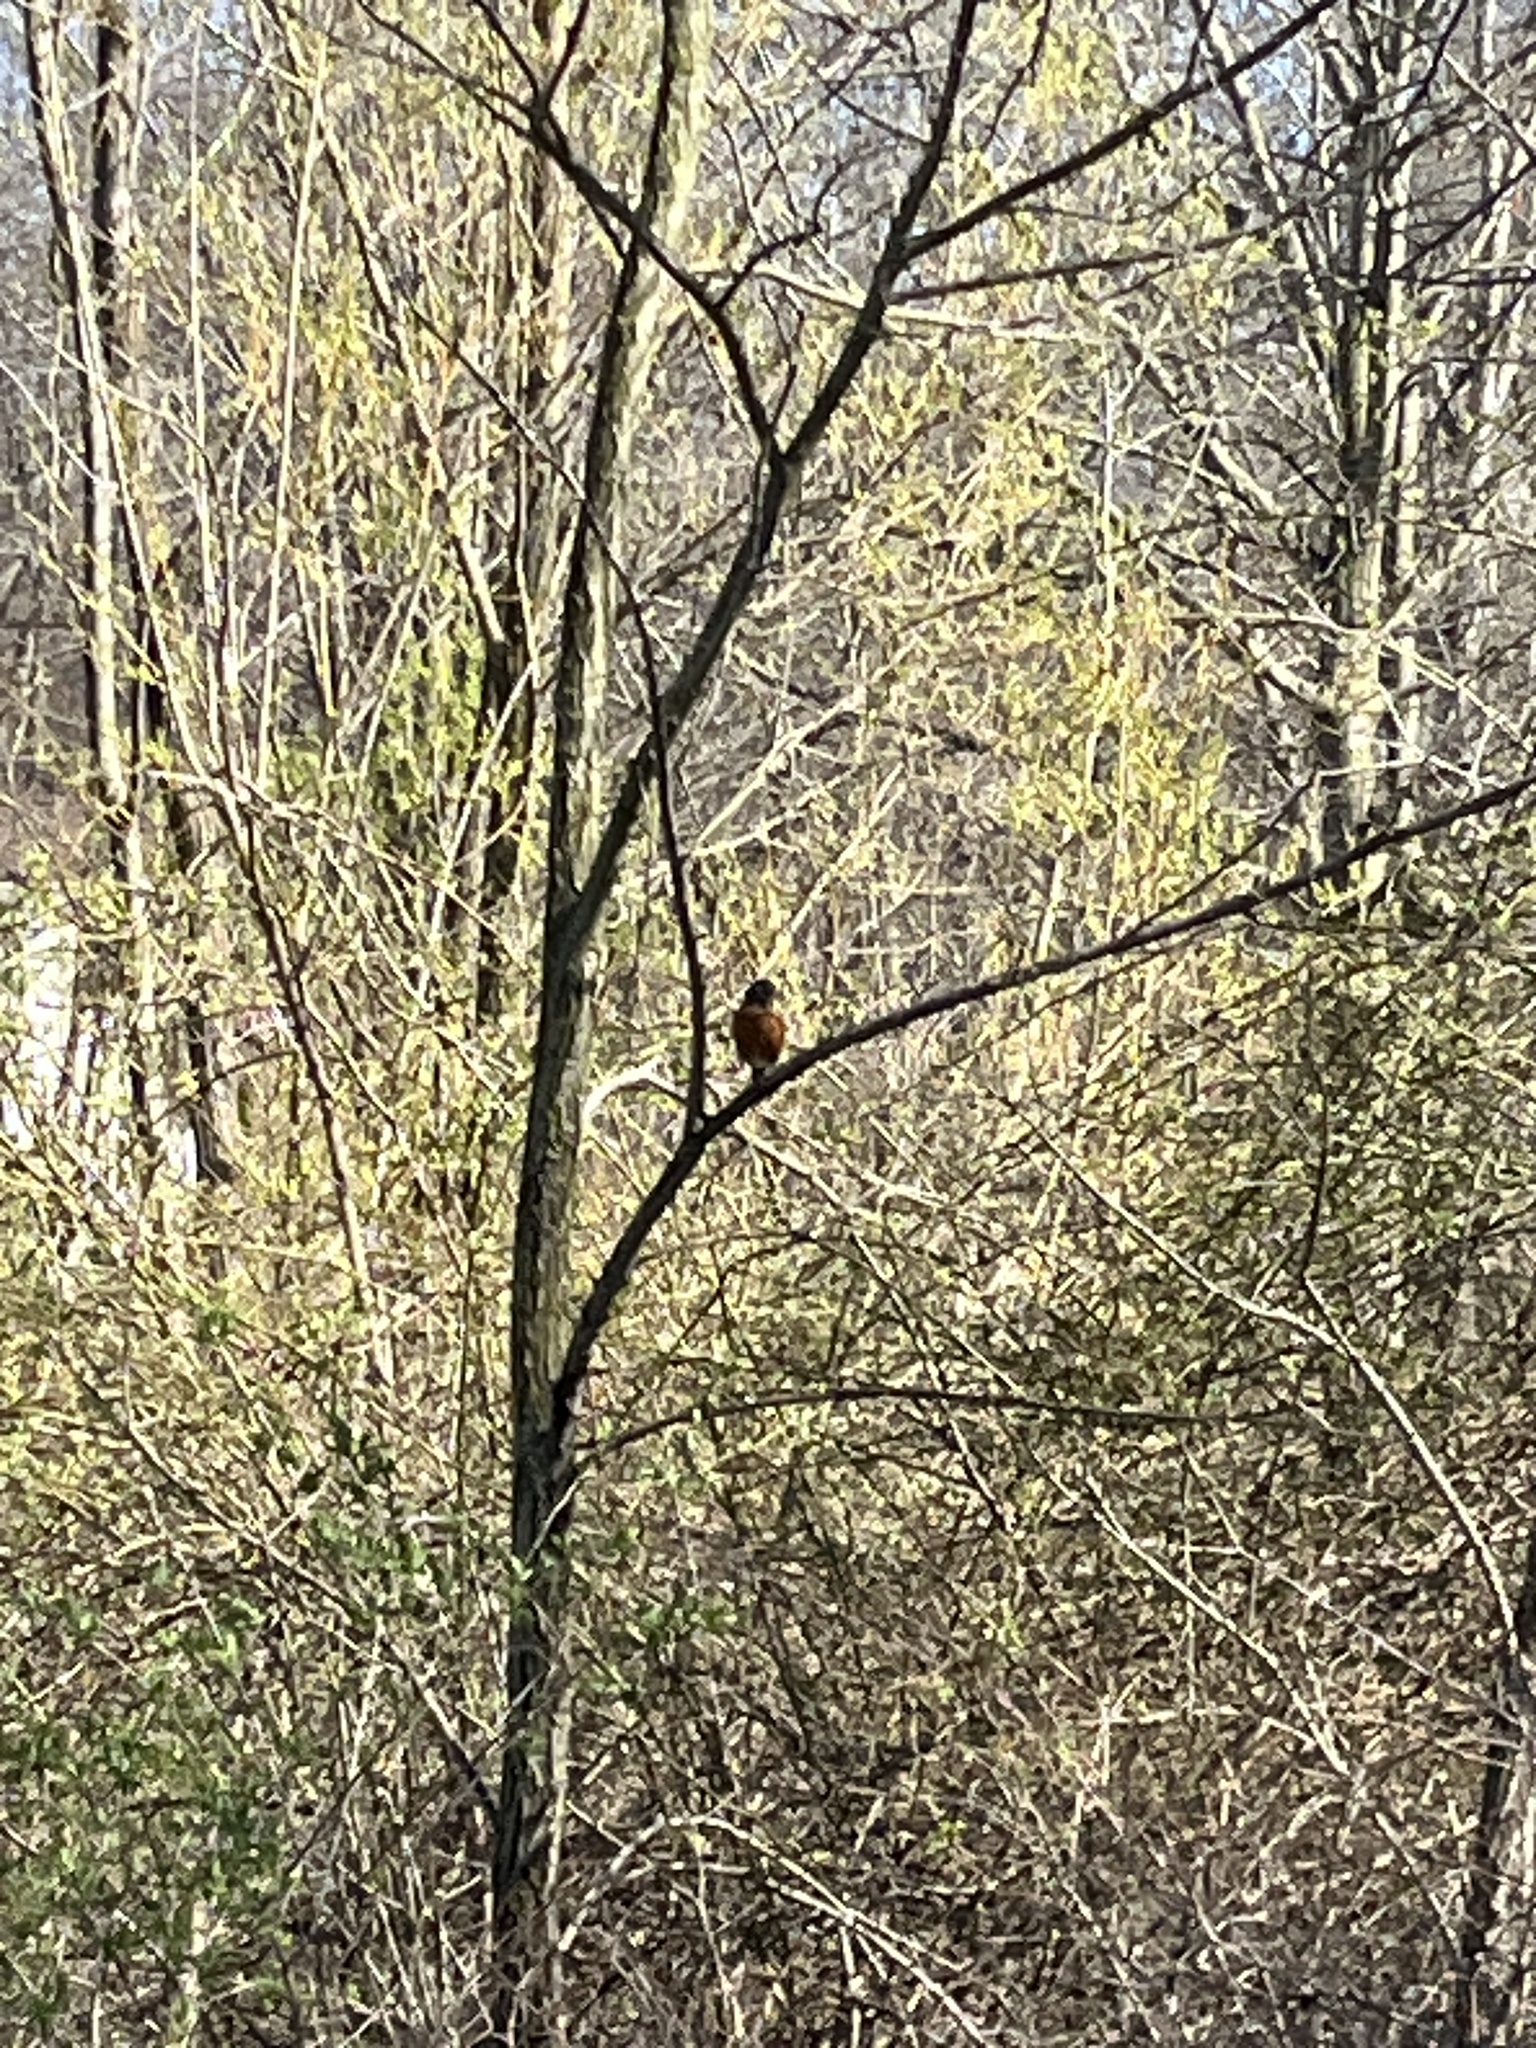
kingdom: Animalia
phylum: Chordata
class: Aves
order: Passeriformes
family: Turdidae
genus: Turdus
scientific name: Turdus migratorius
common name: American robin
